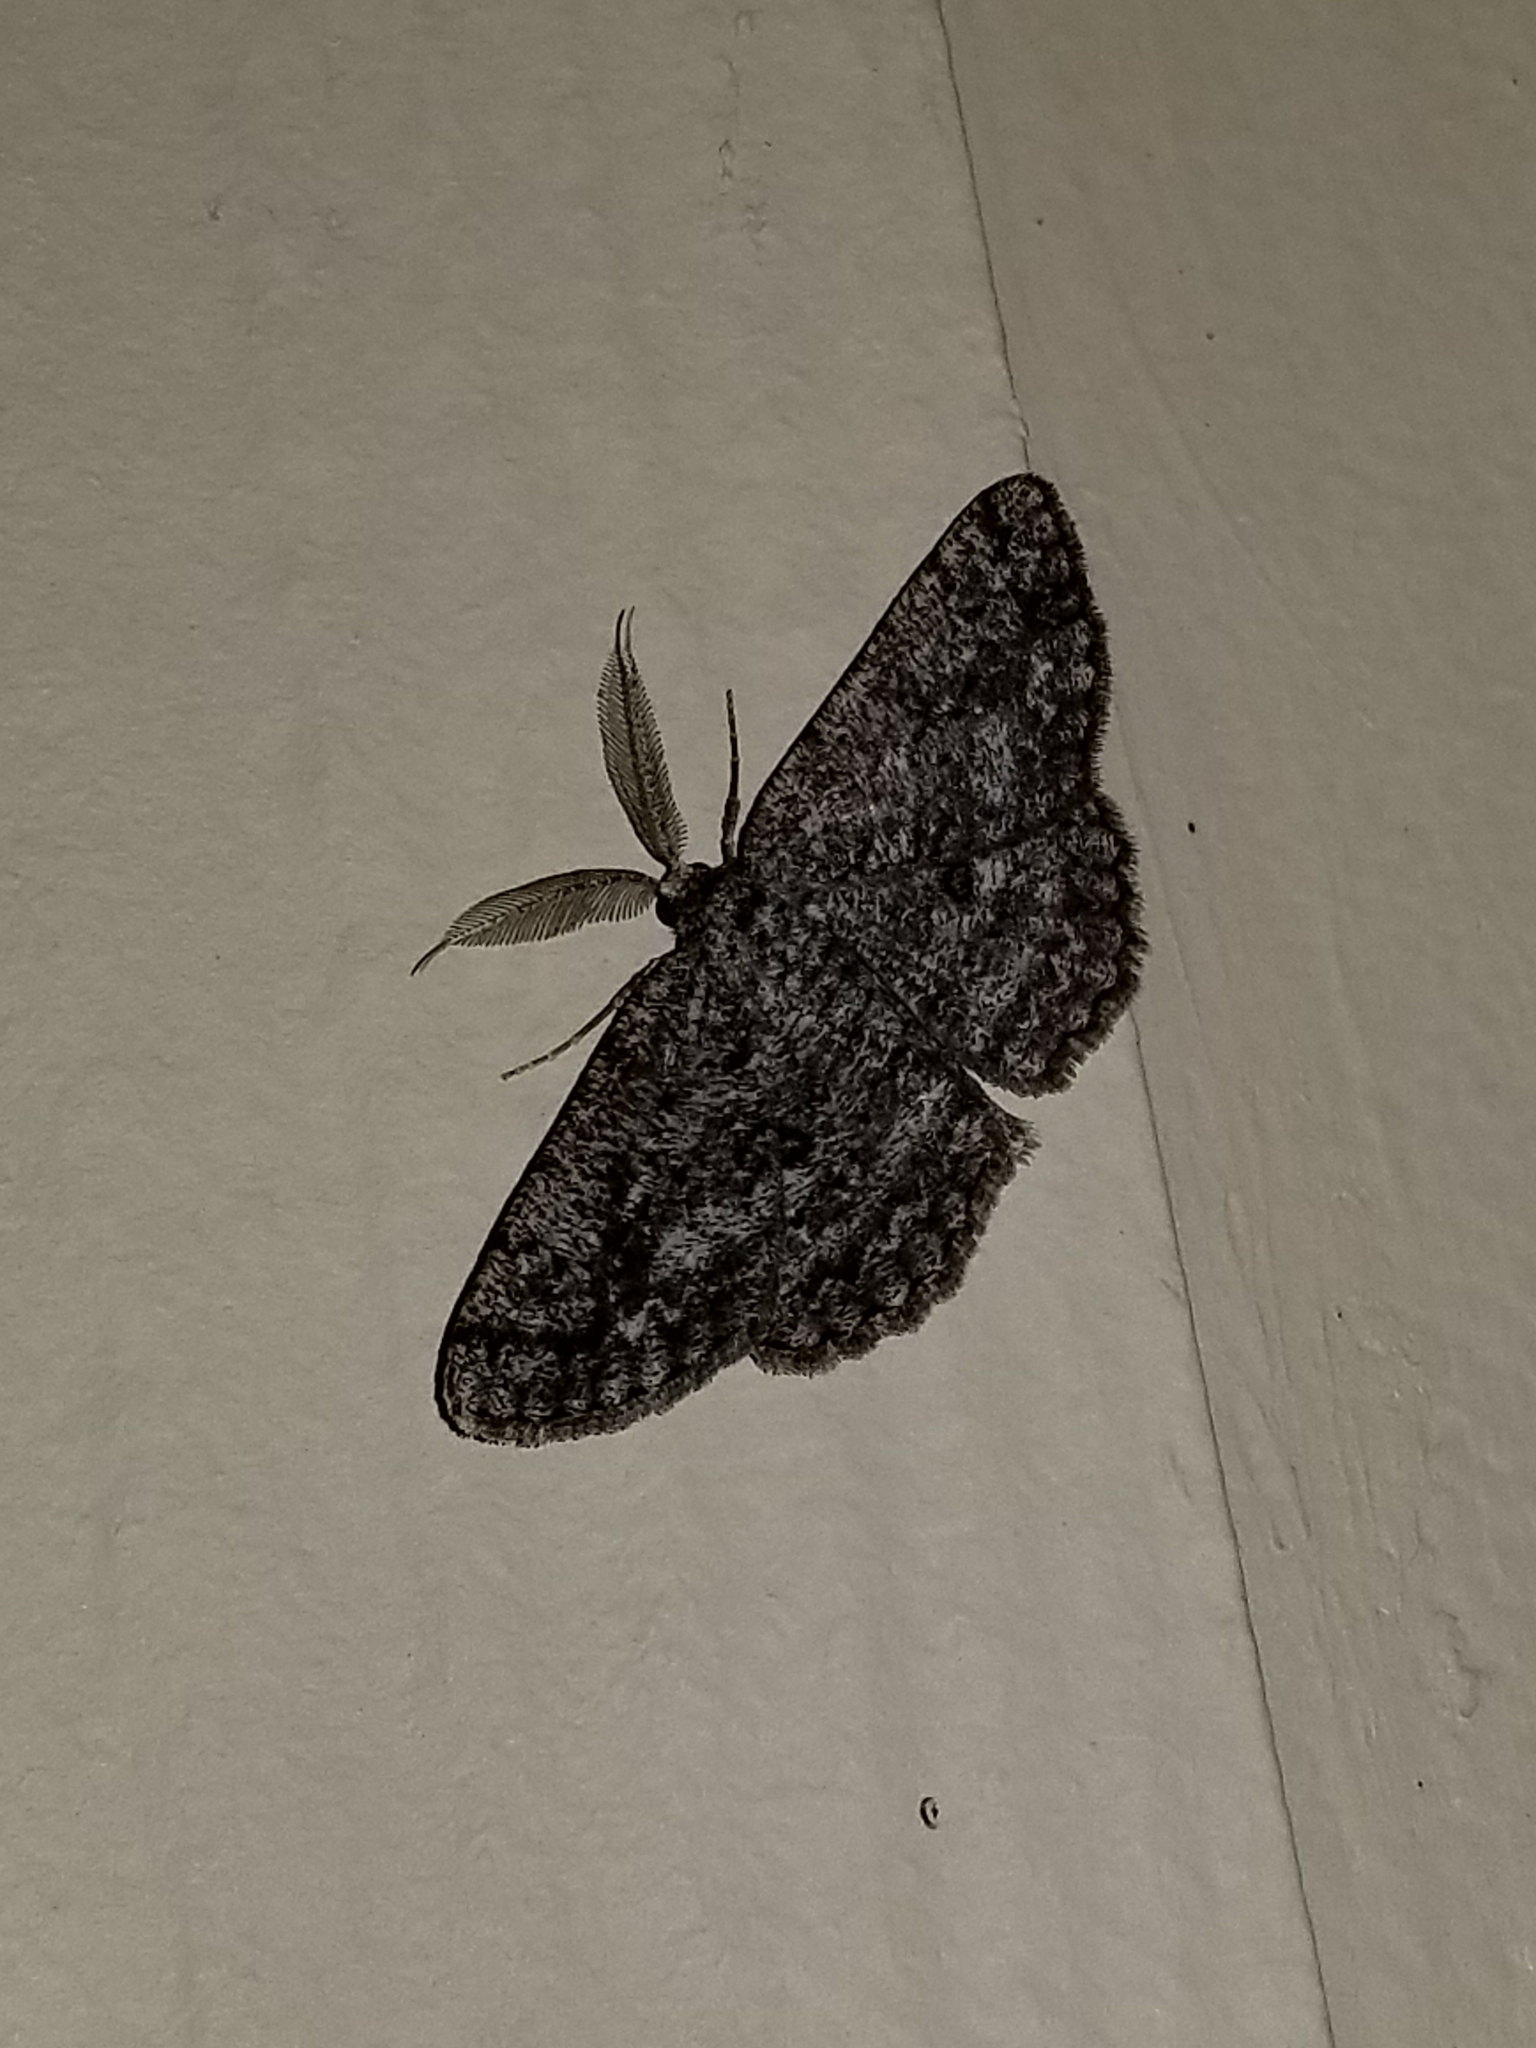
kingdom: Animalia
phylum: Arthropoda
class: Insecta
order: Lepidoptera
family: Geometridae
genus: Hypomecis
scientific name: Hypomecis umbrosaria
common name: Umber moth
